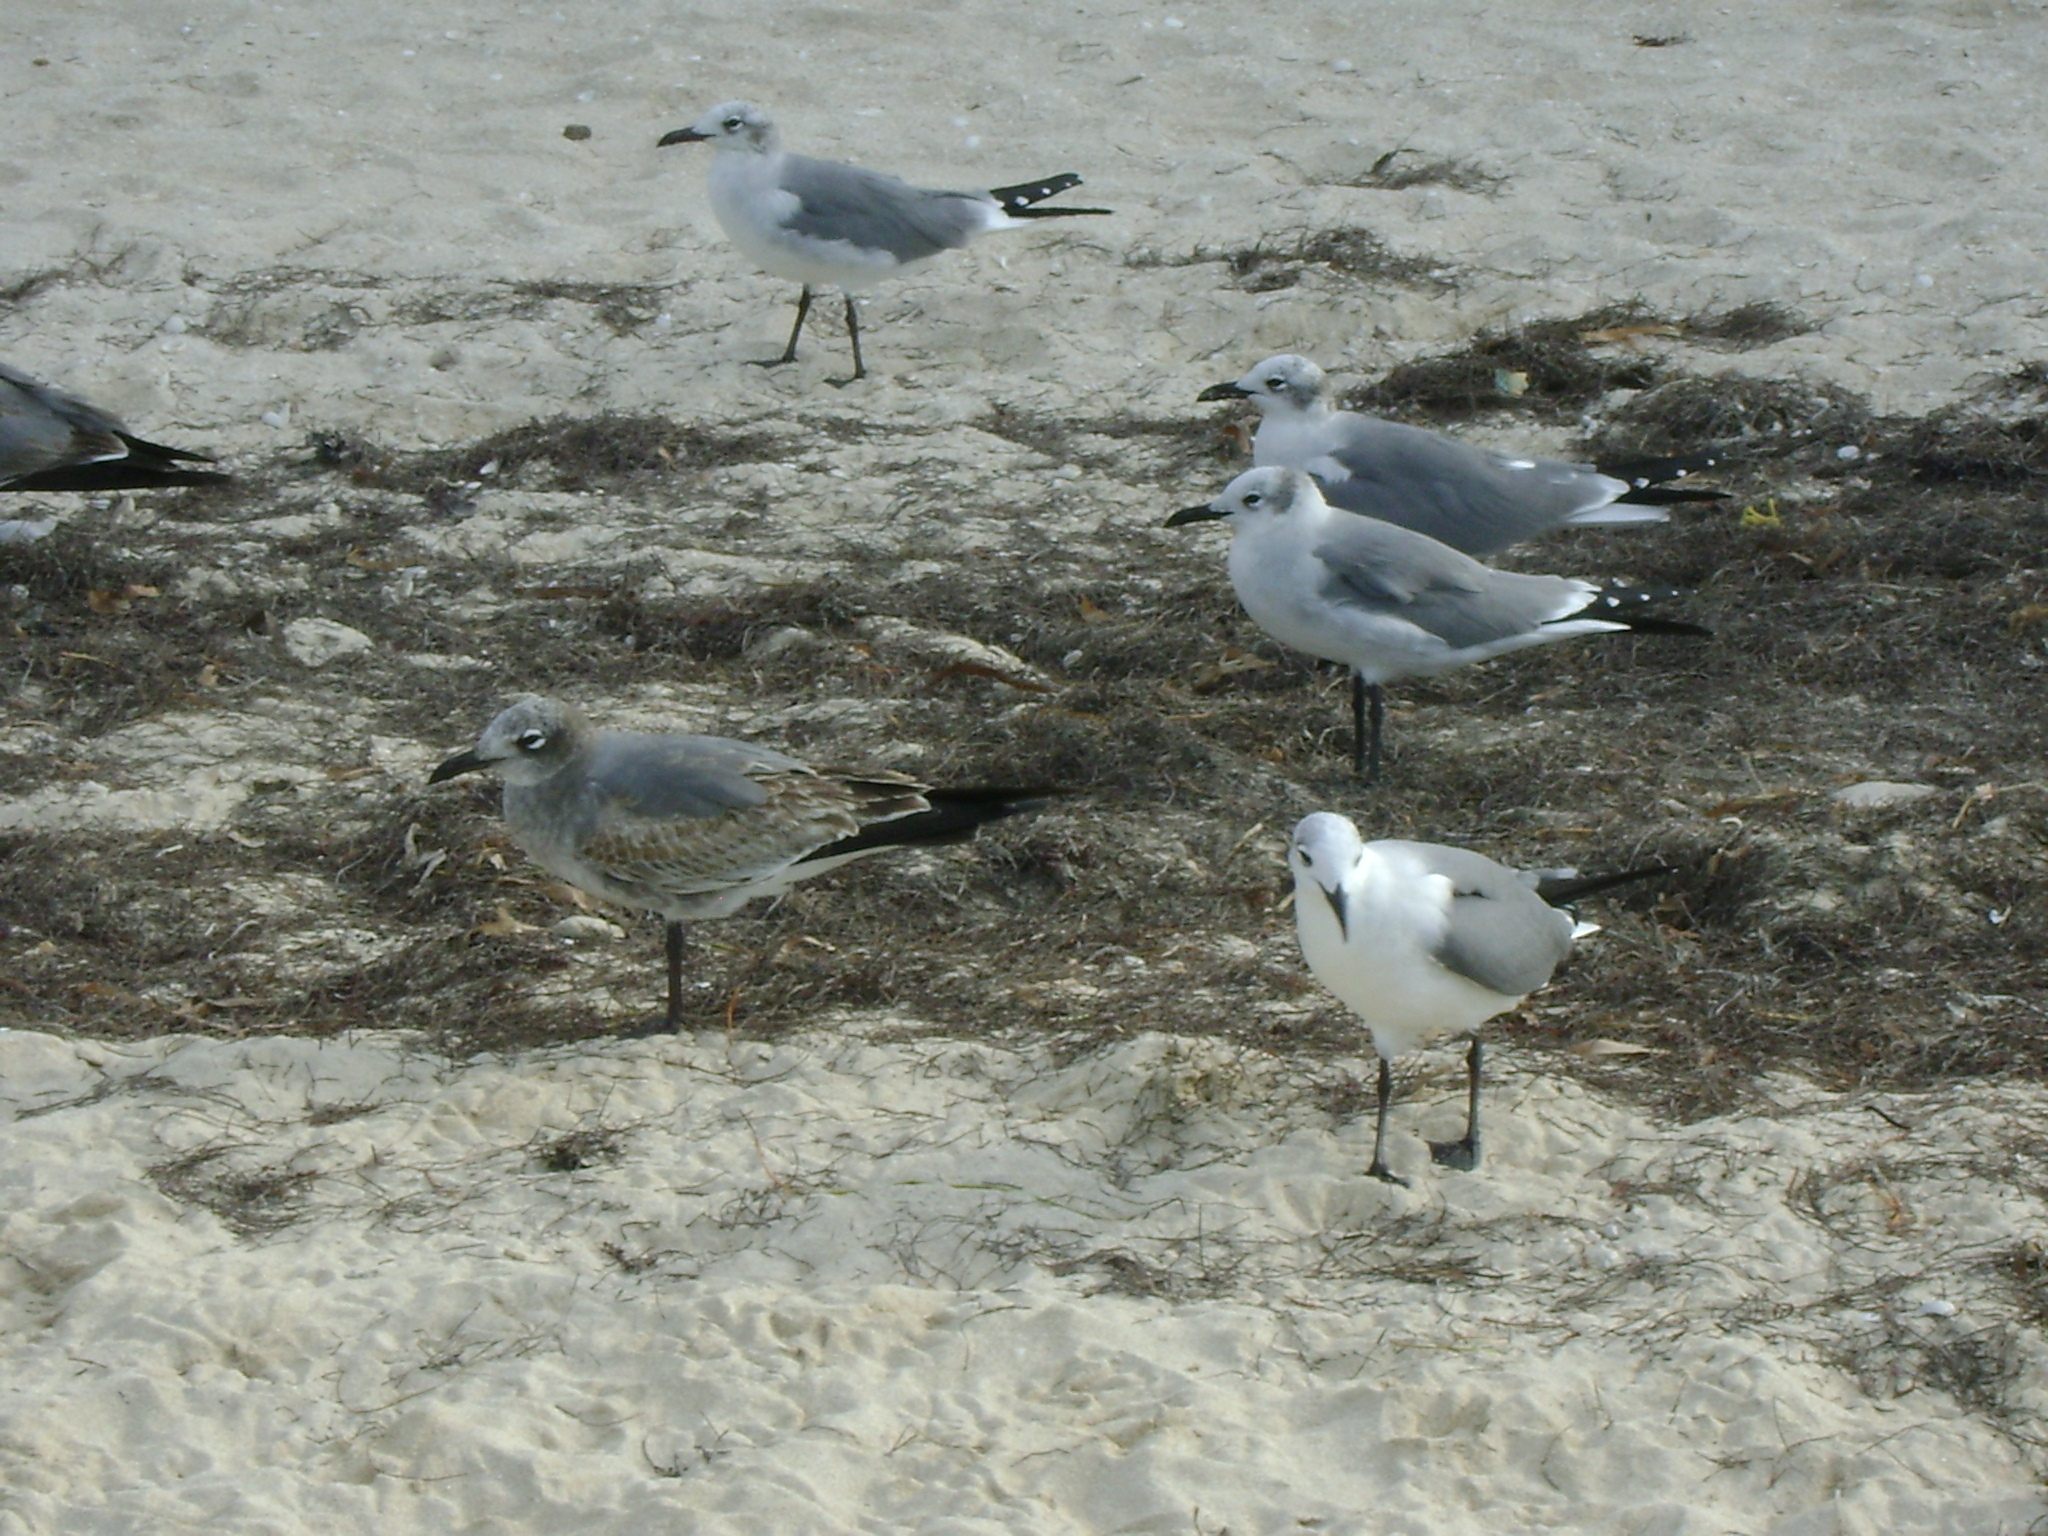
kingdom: Animalia
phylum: Chordata
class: Aves
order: Charadriiformes
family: Laridae
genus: Leucophaeus
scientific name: Leucophaeus atricilla
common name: Laughing gull
